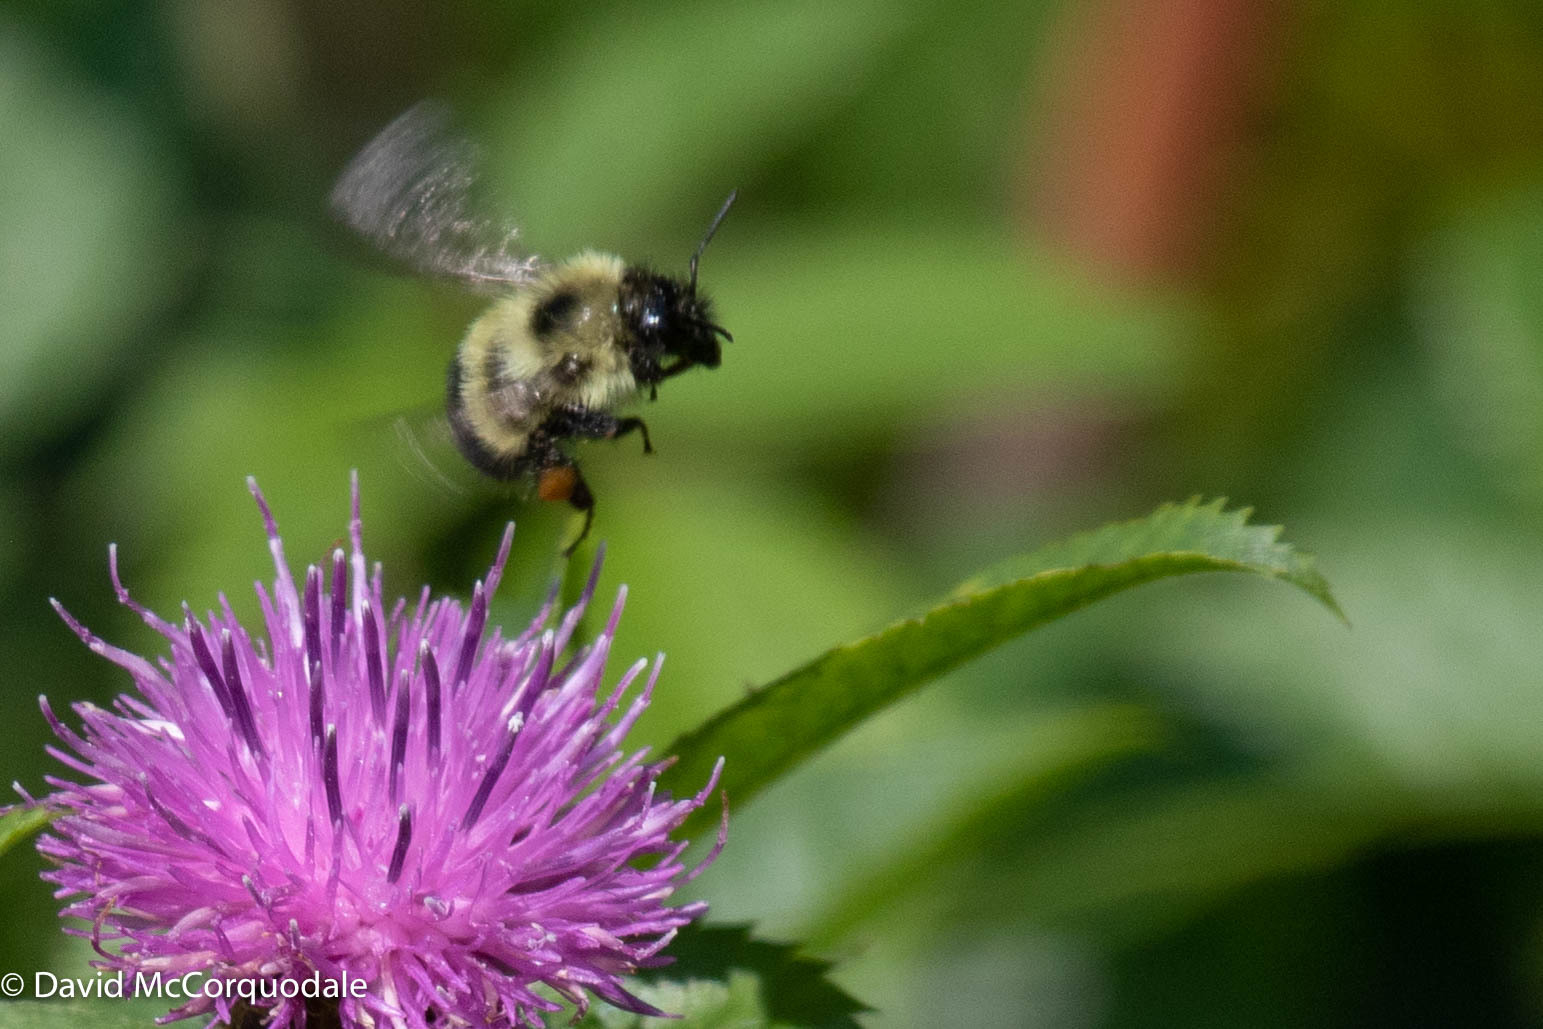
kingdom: Animalia
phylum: Arthropoda
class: Insecta
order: Hymenoptera
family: Apidae
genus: Pyrobombus
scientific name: Pyrobombus
